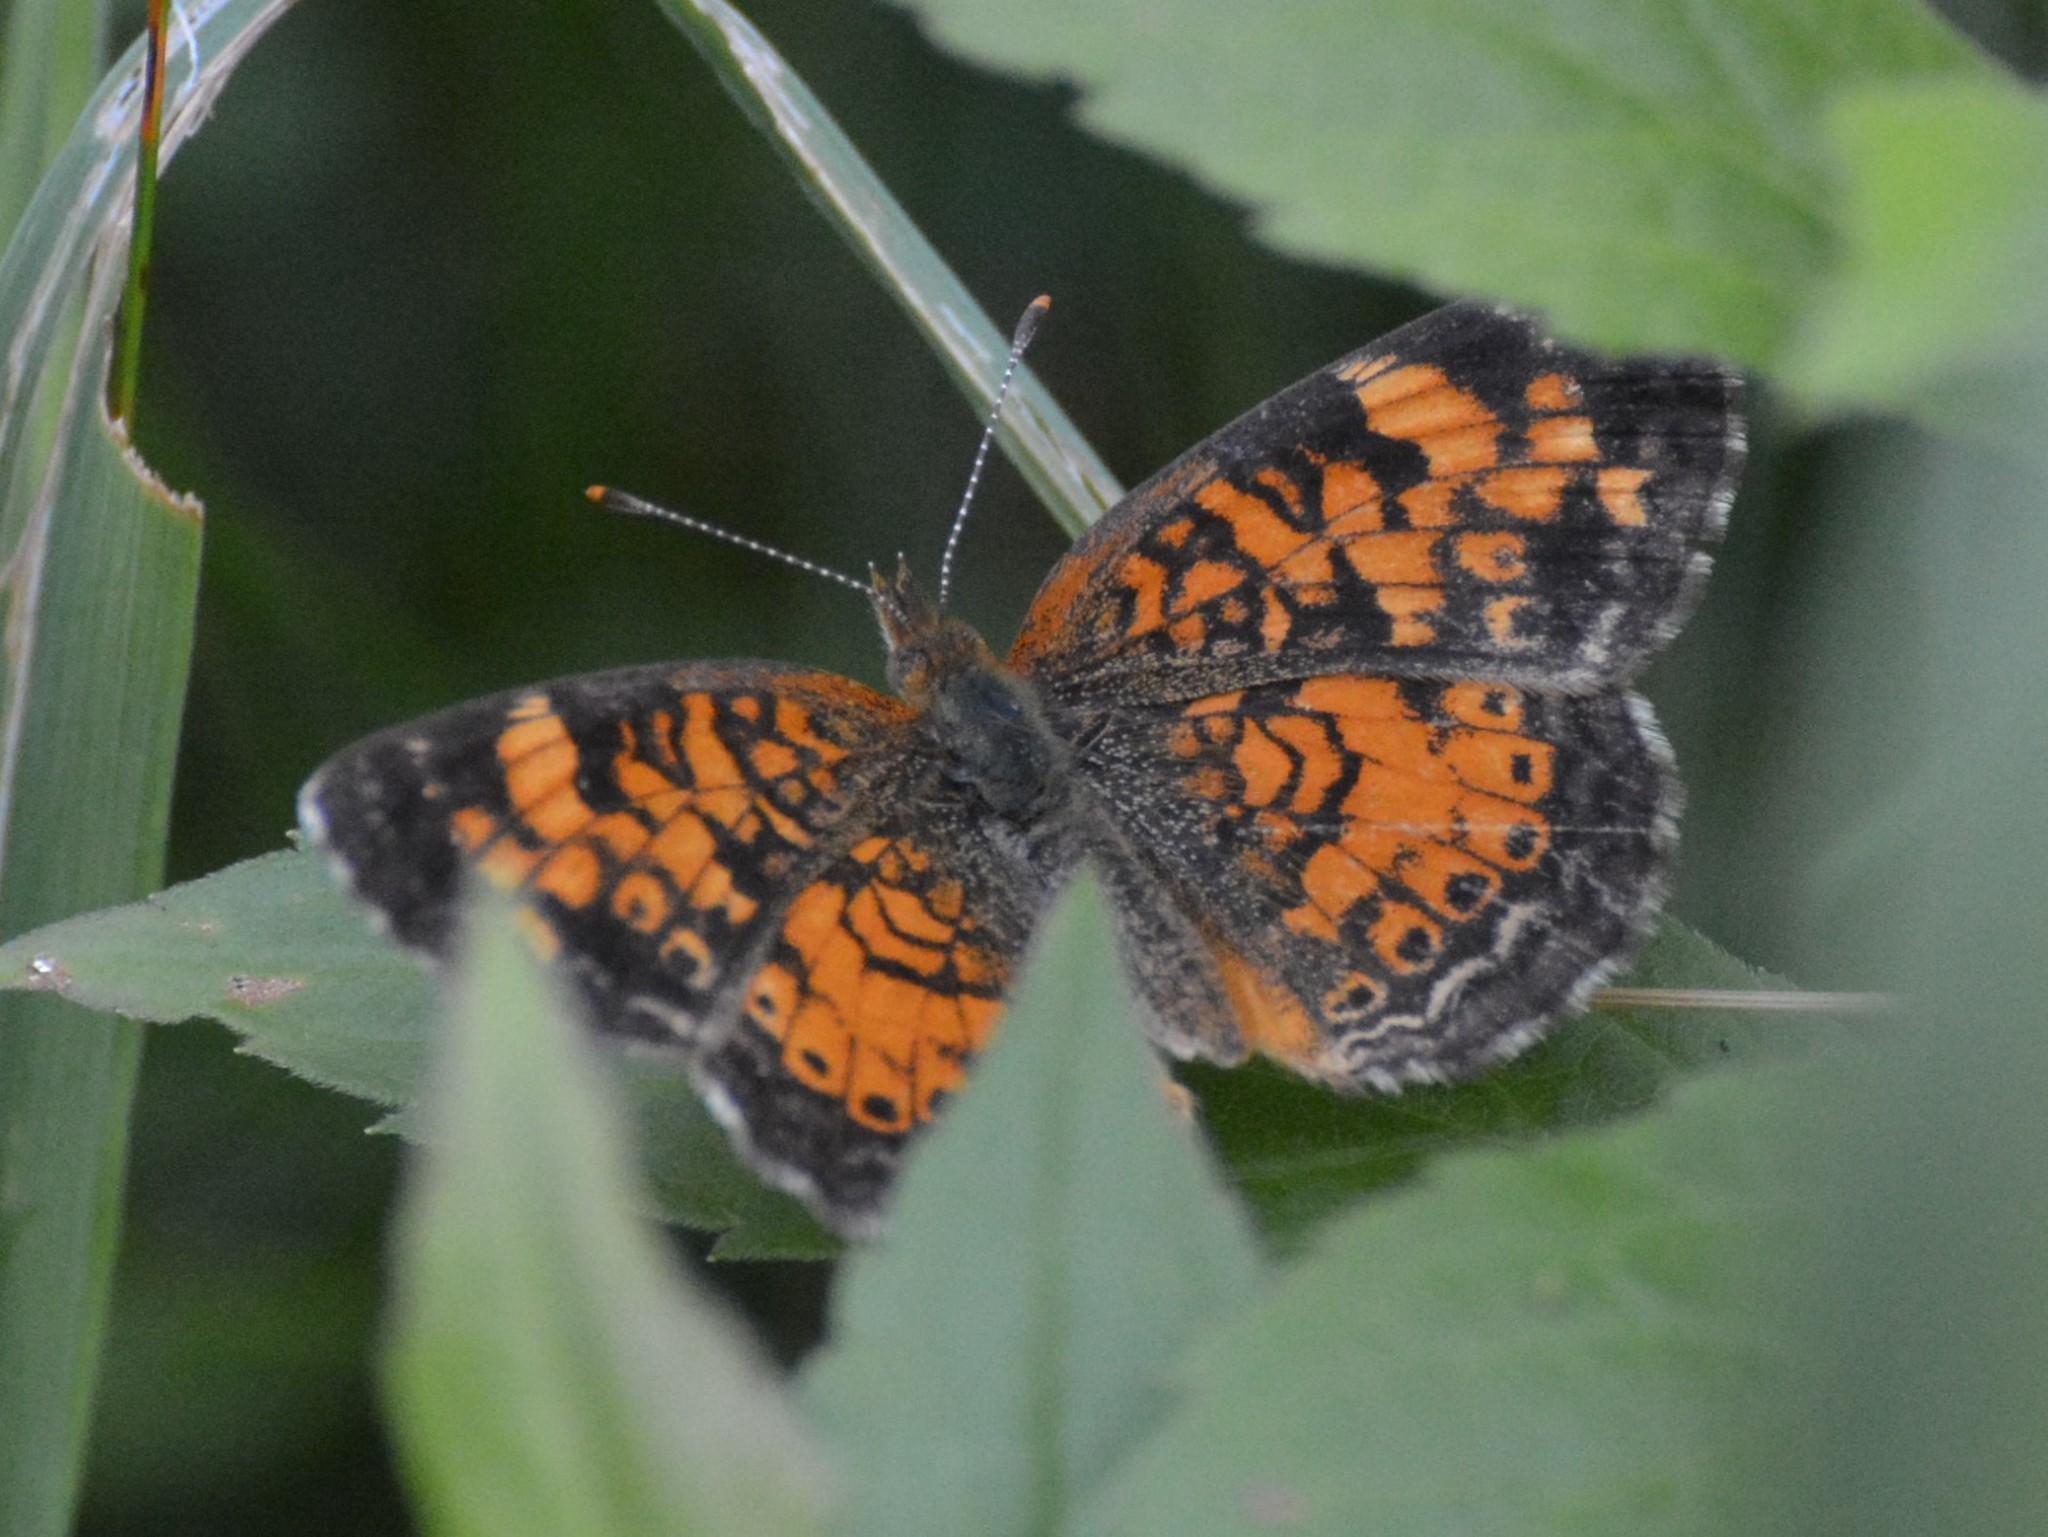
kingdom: Animalia
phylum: Arthropoda
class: Insecta
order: Lepidoptera
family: Nymphalidae
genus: Phyciodes
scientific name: Phyciodes tharos
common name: Pearl crescent
